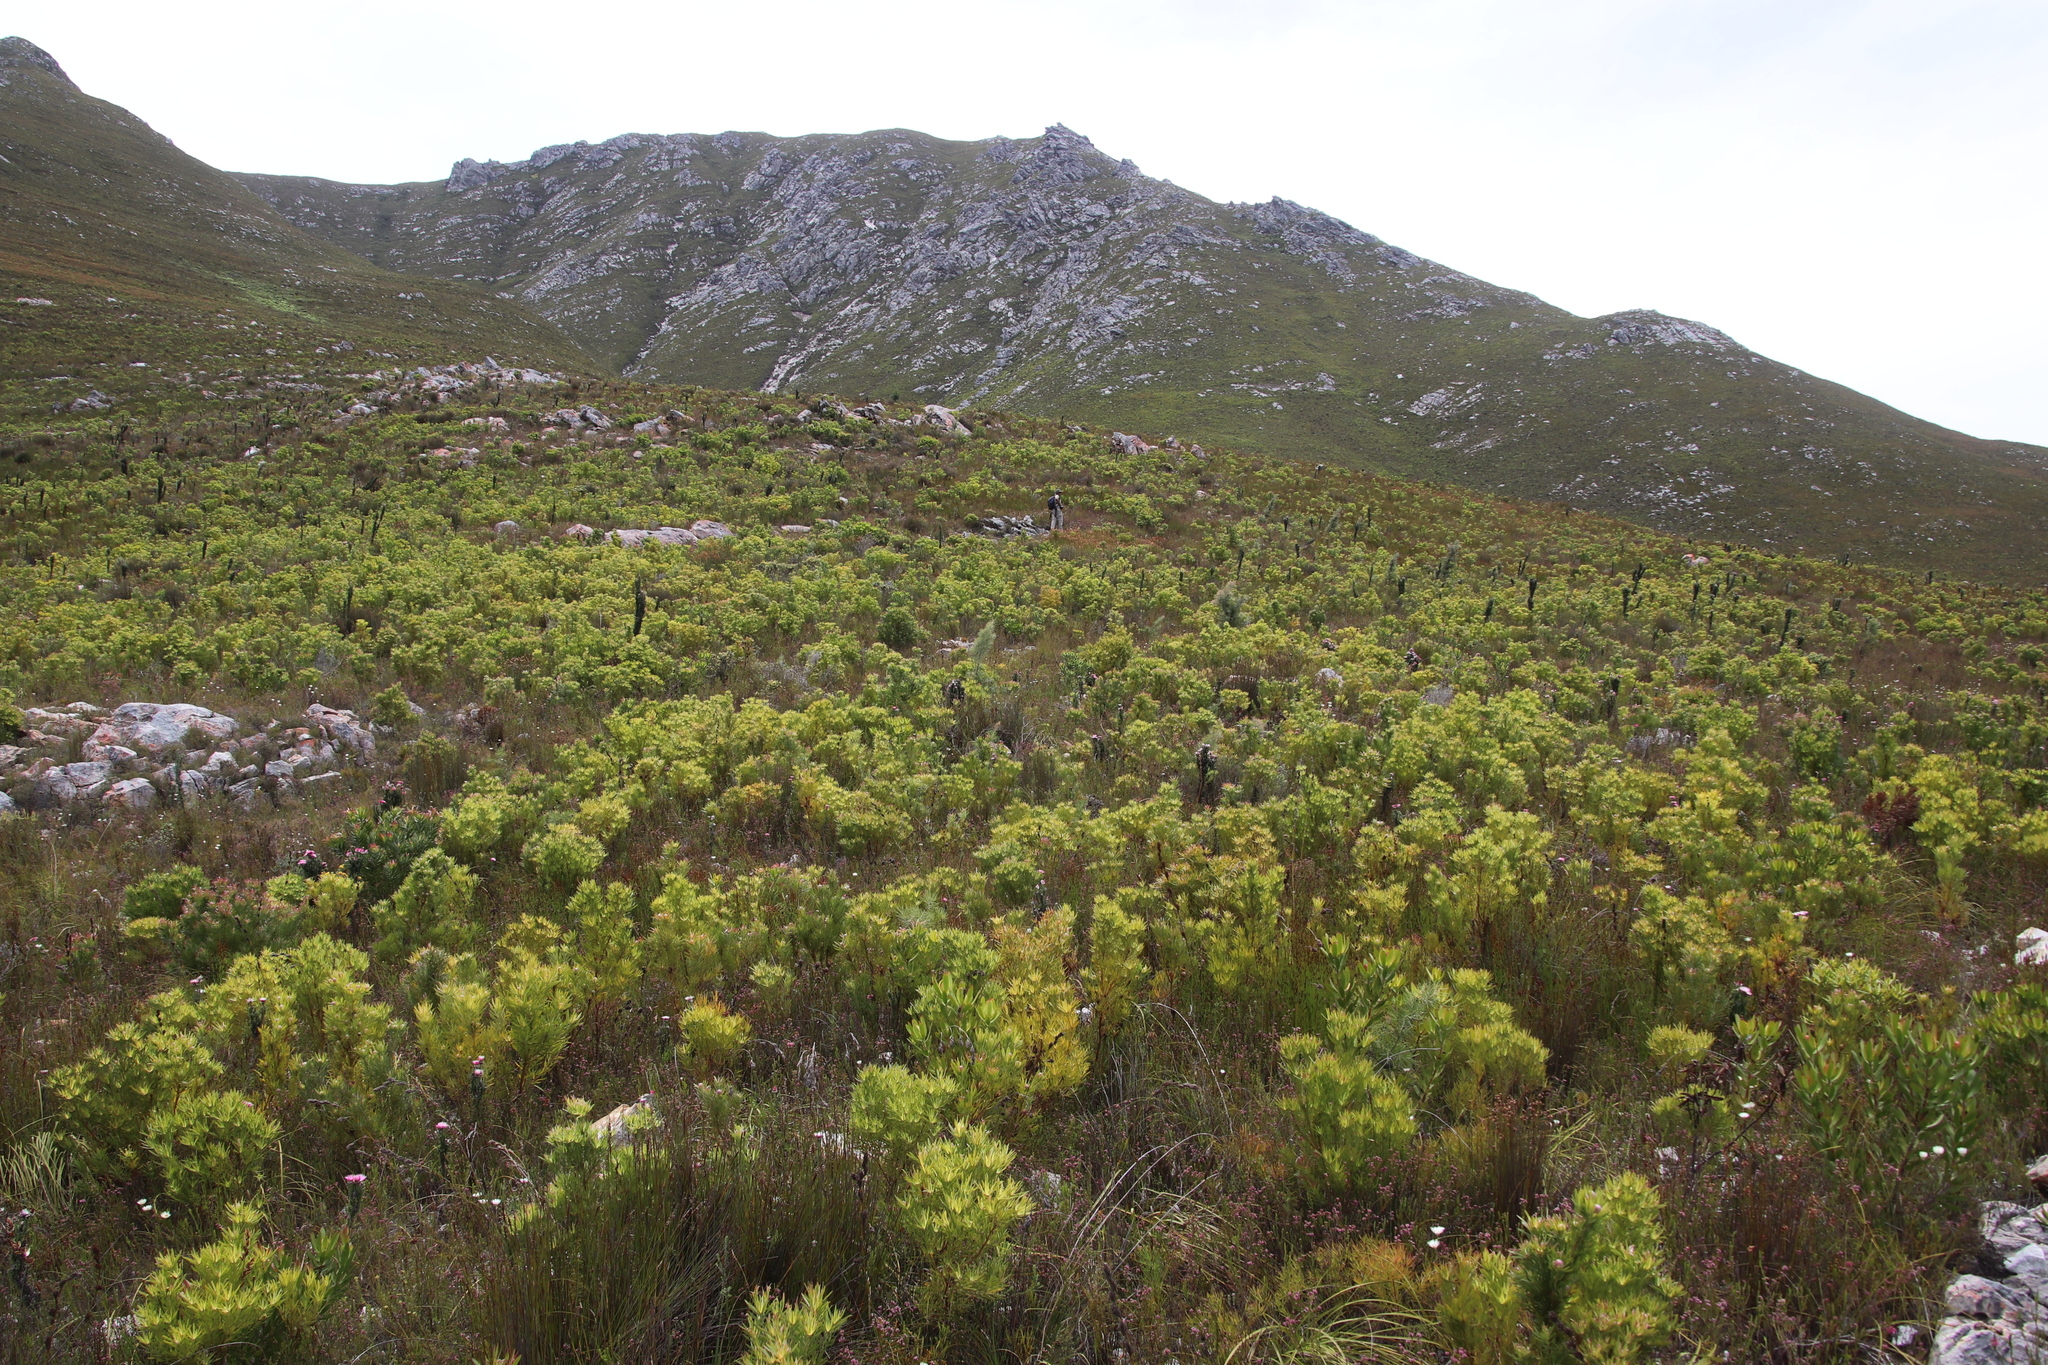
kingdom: Plantae
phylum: Tracheophyta
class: Magnoliopsida
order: Proteales
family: Proteaceae
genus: Hakea
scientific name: Hakea gibbosa
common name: Rock hakea
